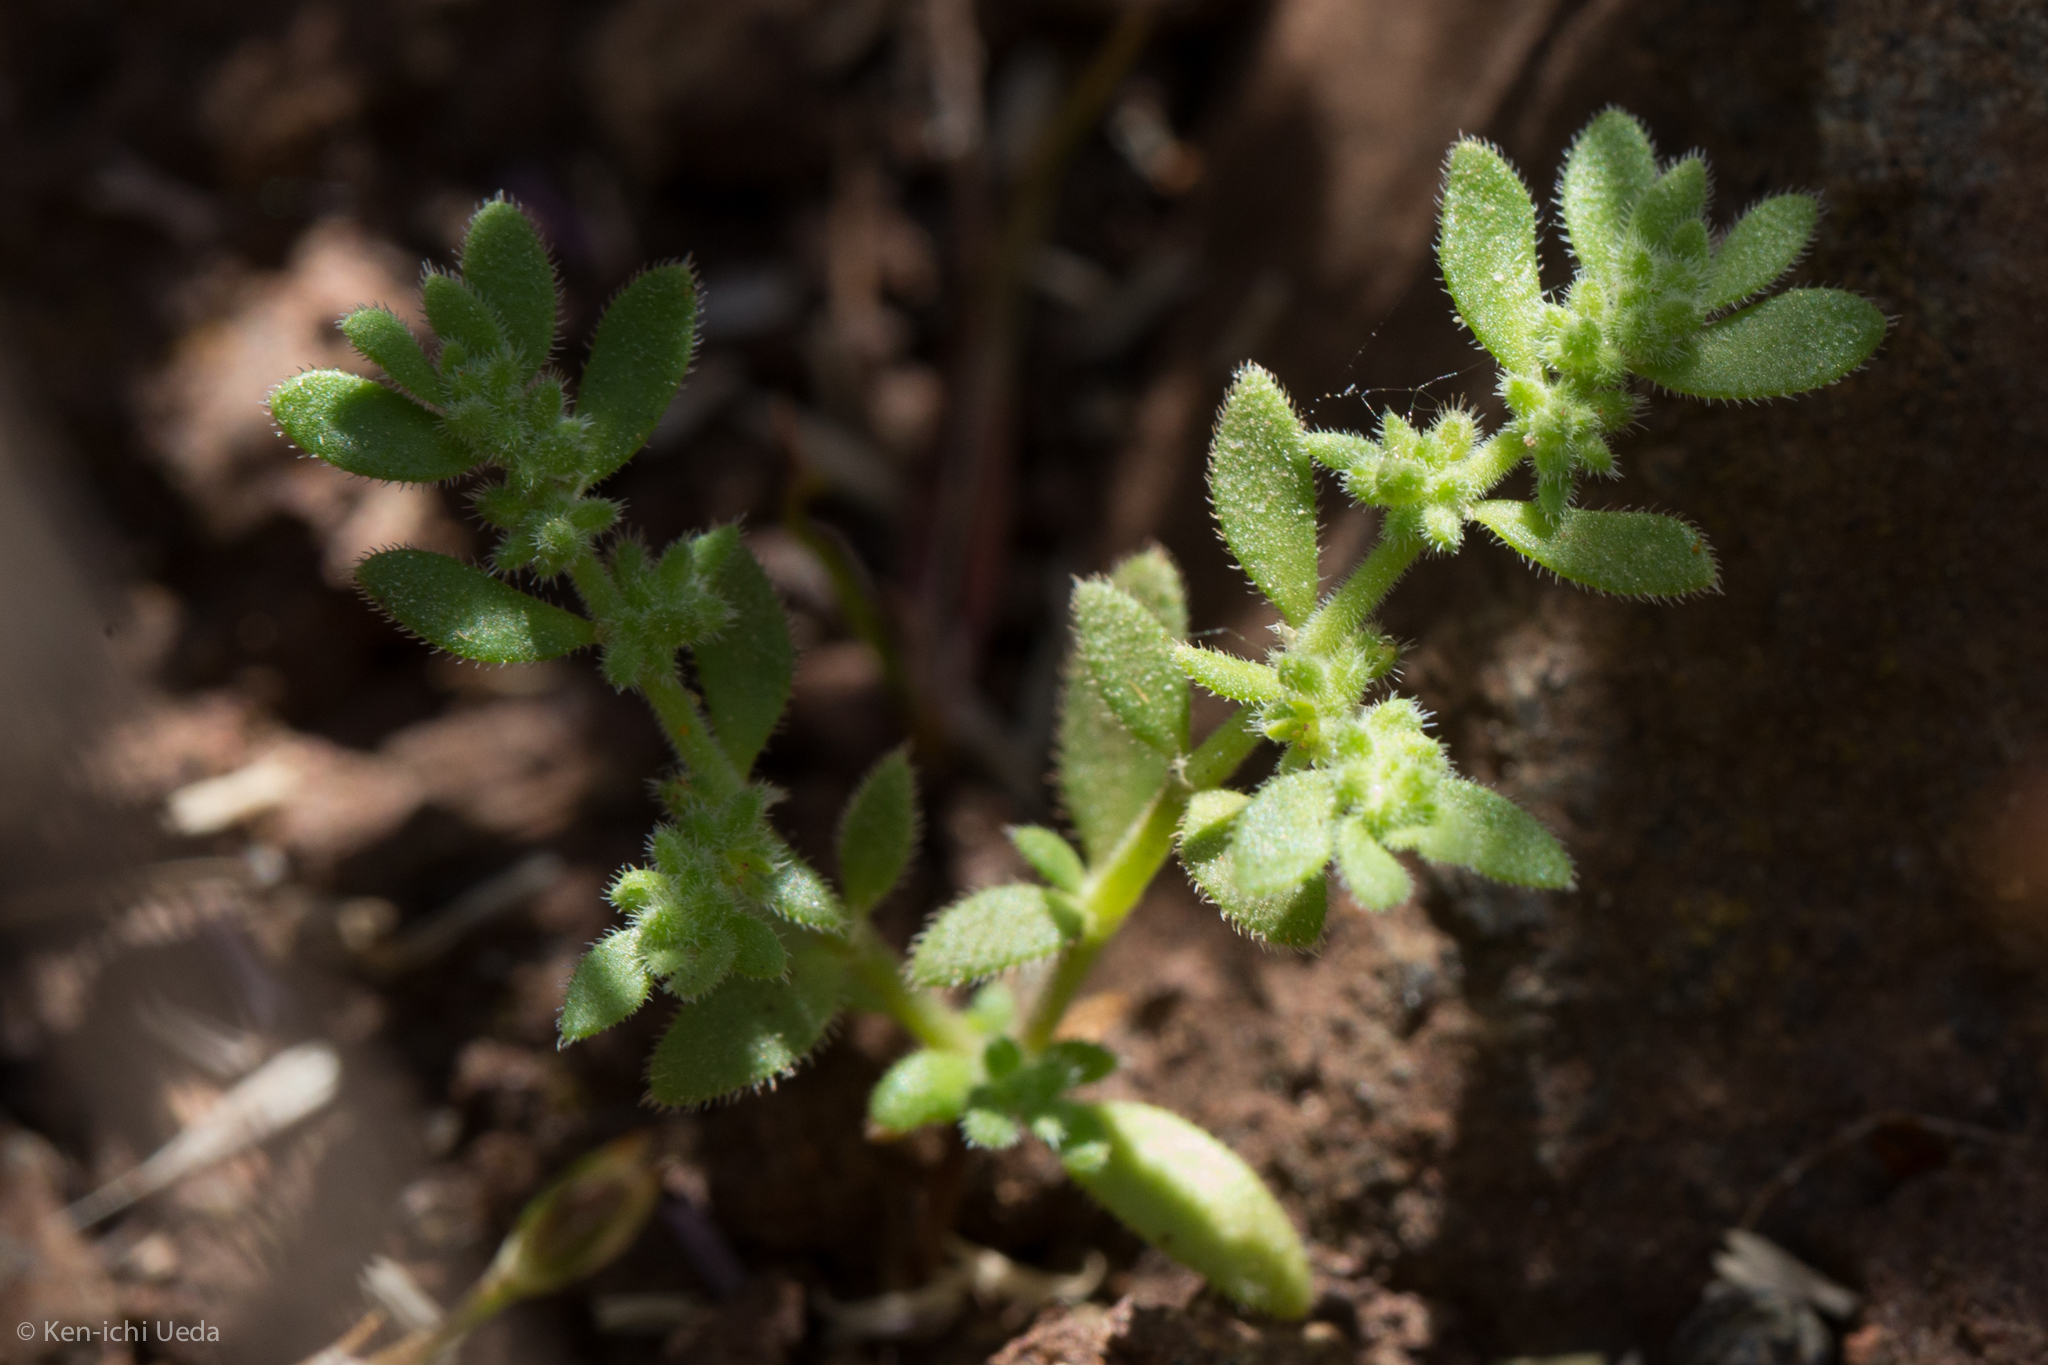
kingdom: Plantae
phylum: Tracheophyta
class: Magnoliopsida
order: Caryophyllales
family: Caryophyllaceae
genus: Herniaria
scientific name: Herniaria hirsuta
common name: Hairy rupturewort
